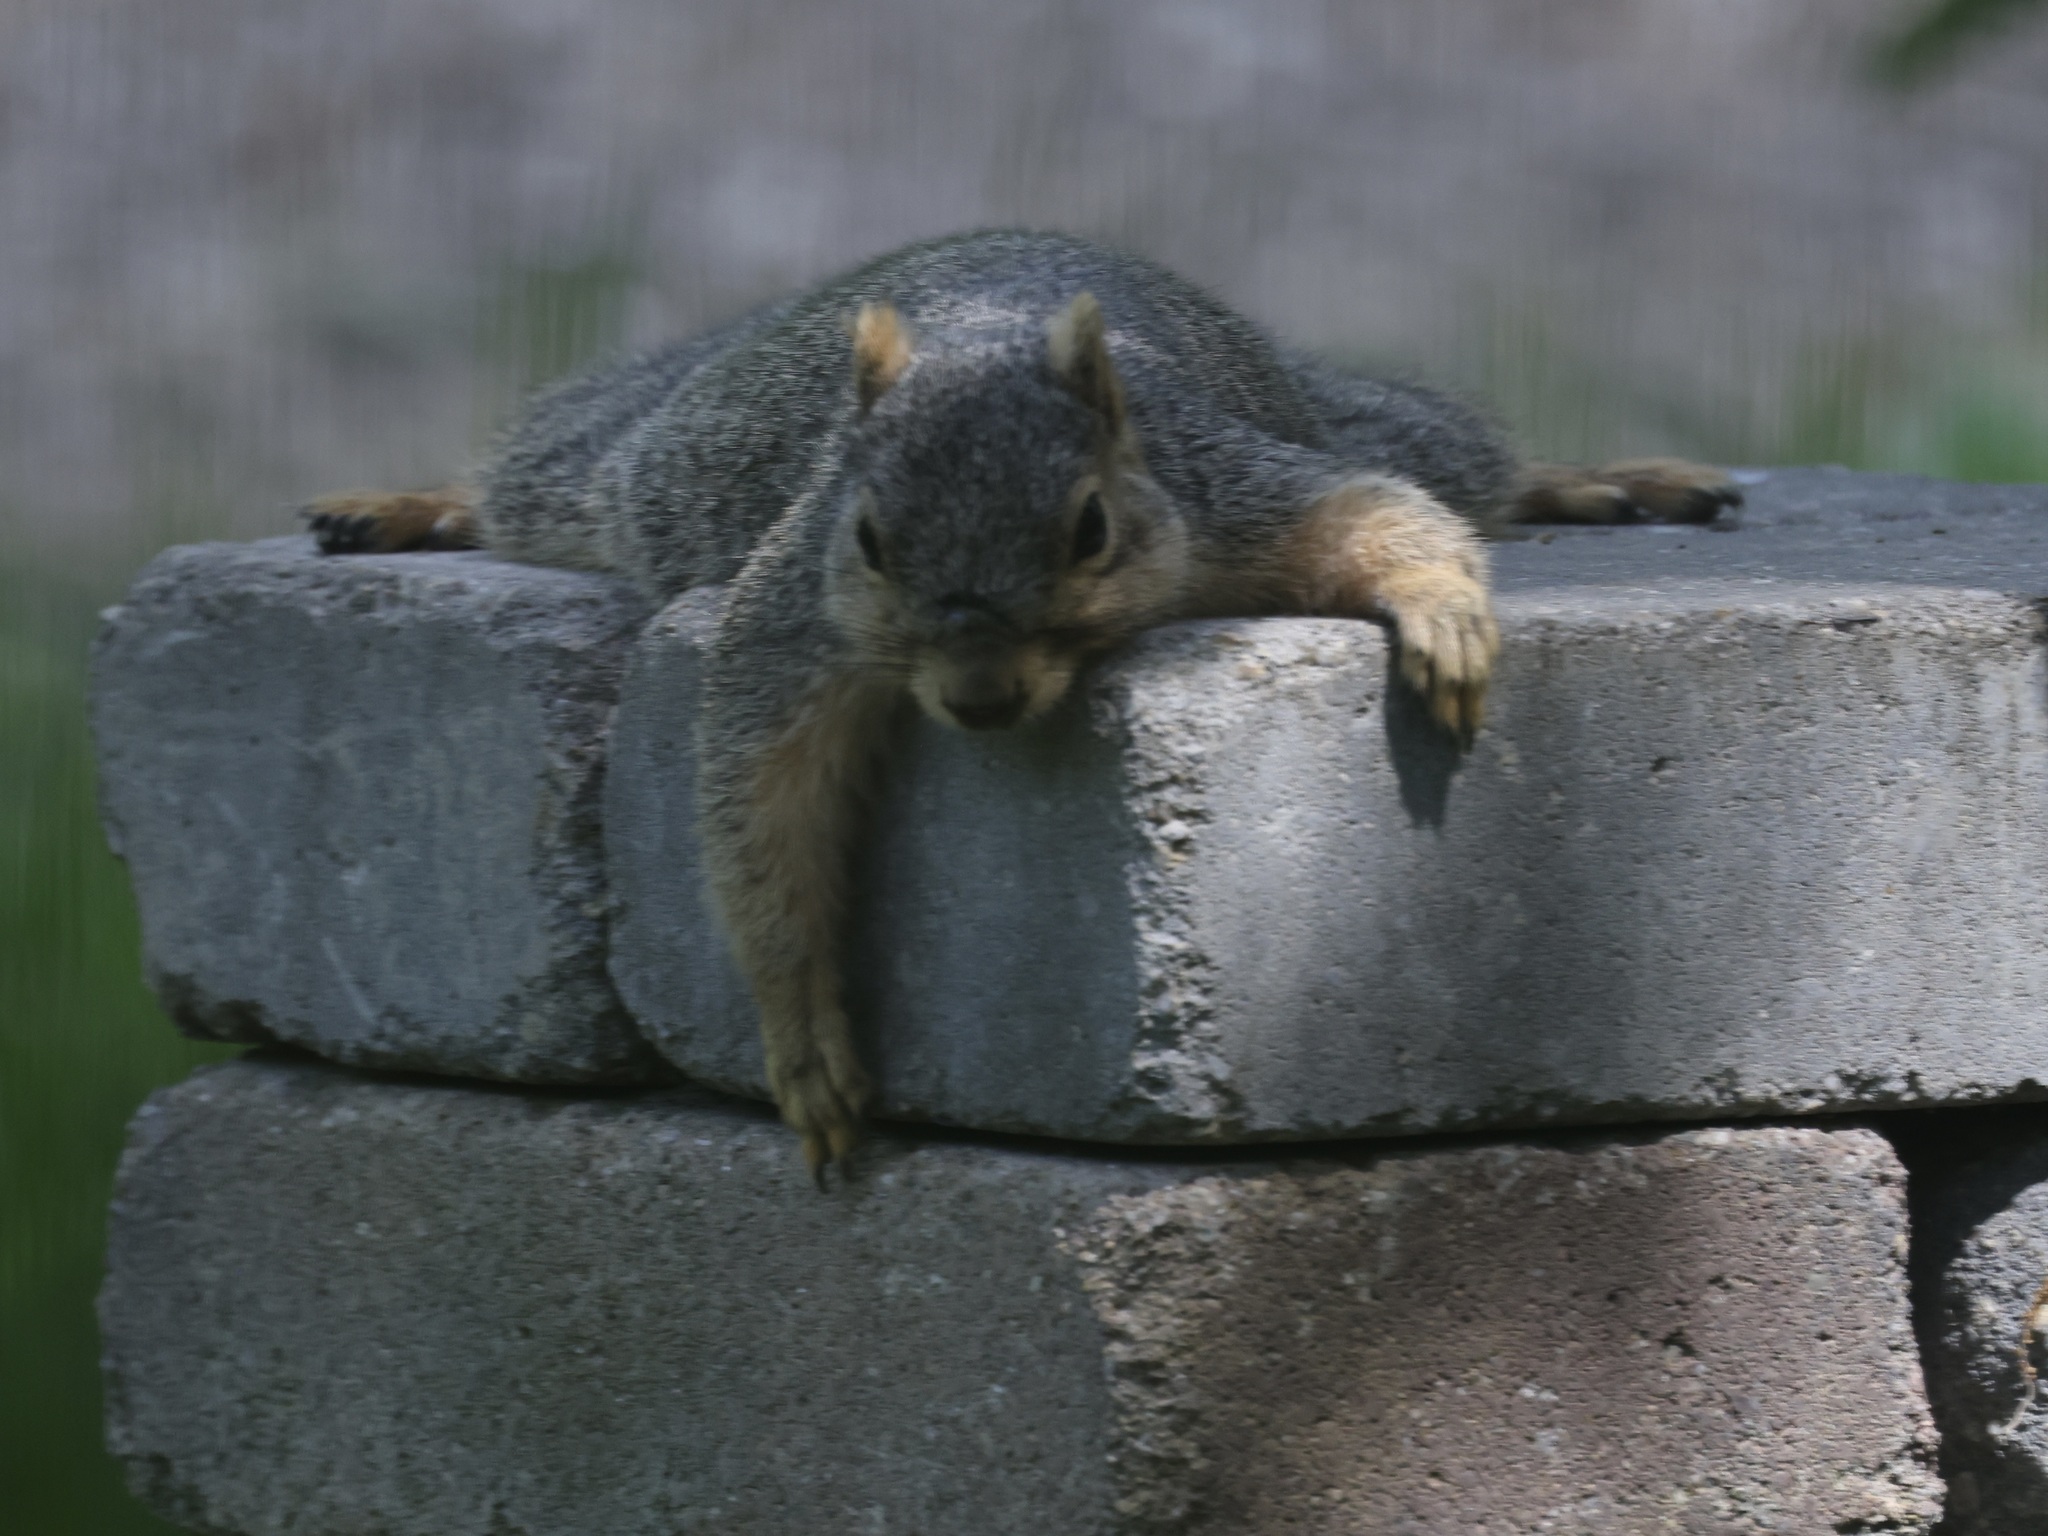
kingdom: Animalia
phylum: Chordata
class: Mammalia
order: Rodentia
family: Sciuridae
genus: Sciurus
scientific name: Sciurus niger
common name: Fox squirrel
